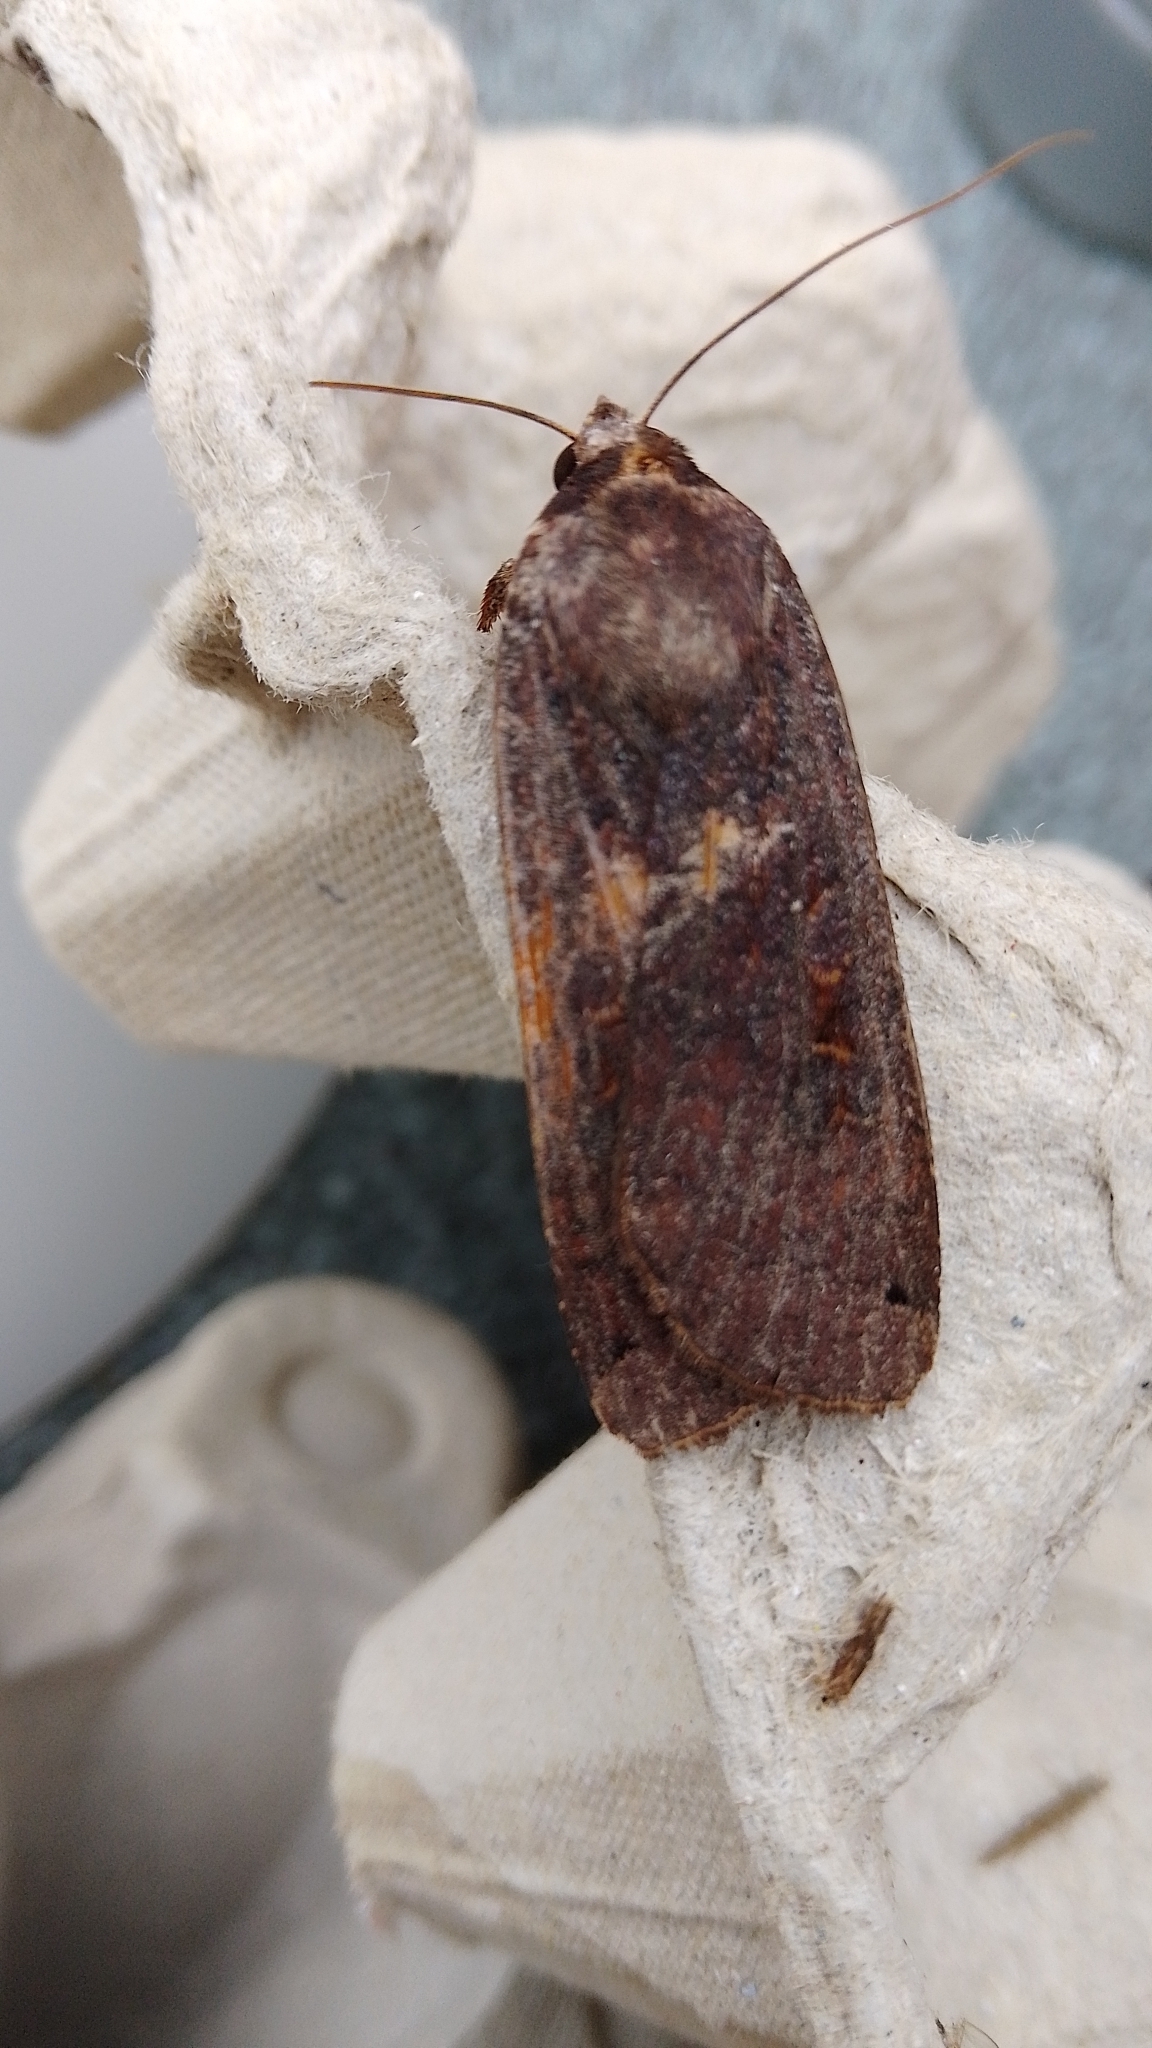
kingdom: Animalia
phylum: Arthropoda
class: Insecta
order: Lepidoptera
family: Noctuidae
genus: Noctua
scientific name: Noctua pronuba
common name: Large yellow underwing
